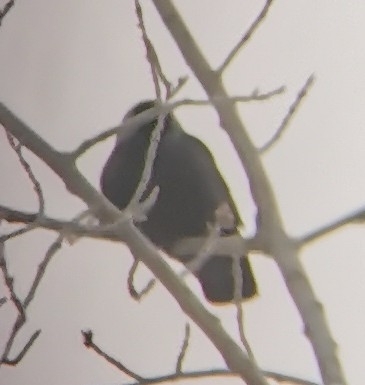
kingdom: Animalia
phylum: Chordata
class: Aves
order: Passeriformes
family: Corvidae
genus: Coloeus
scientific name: Coloeus monedula
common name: Western jackdaw
